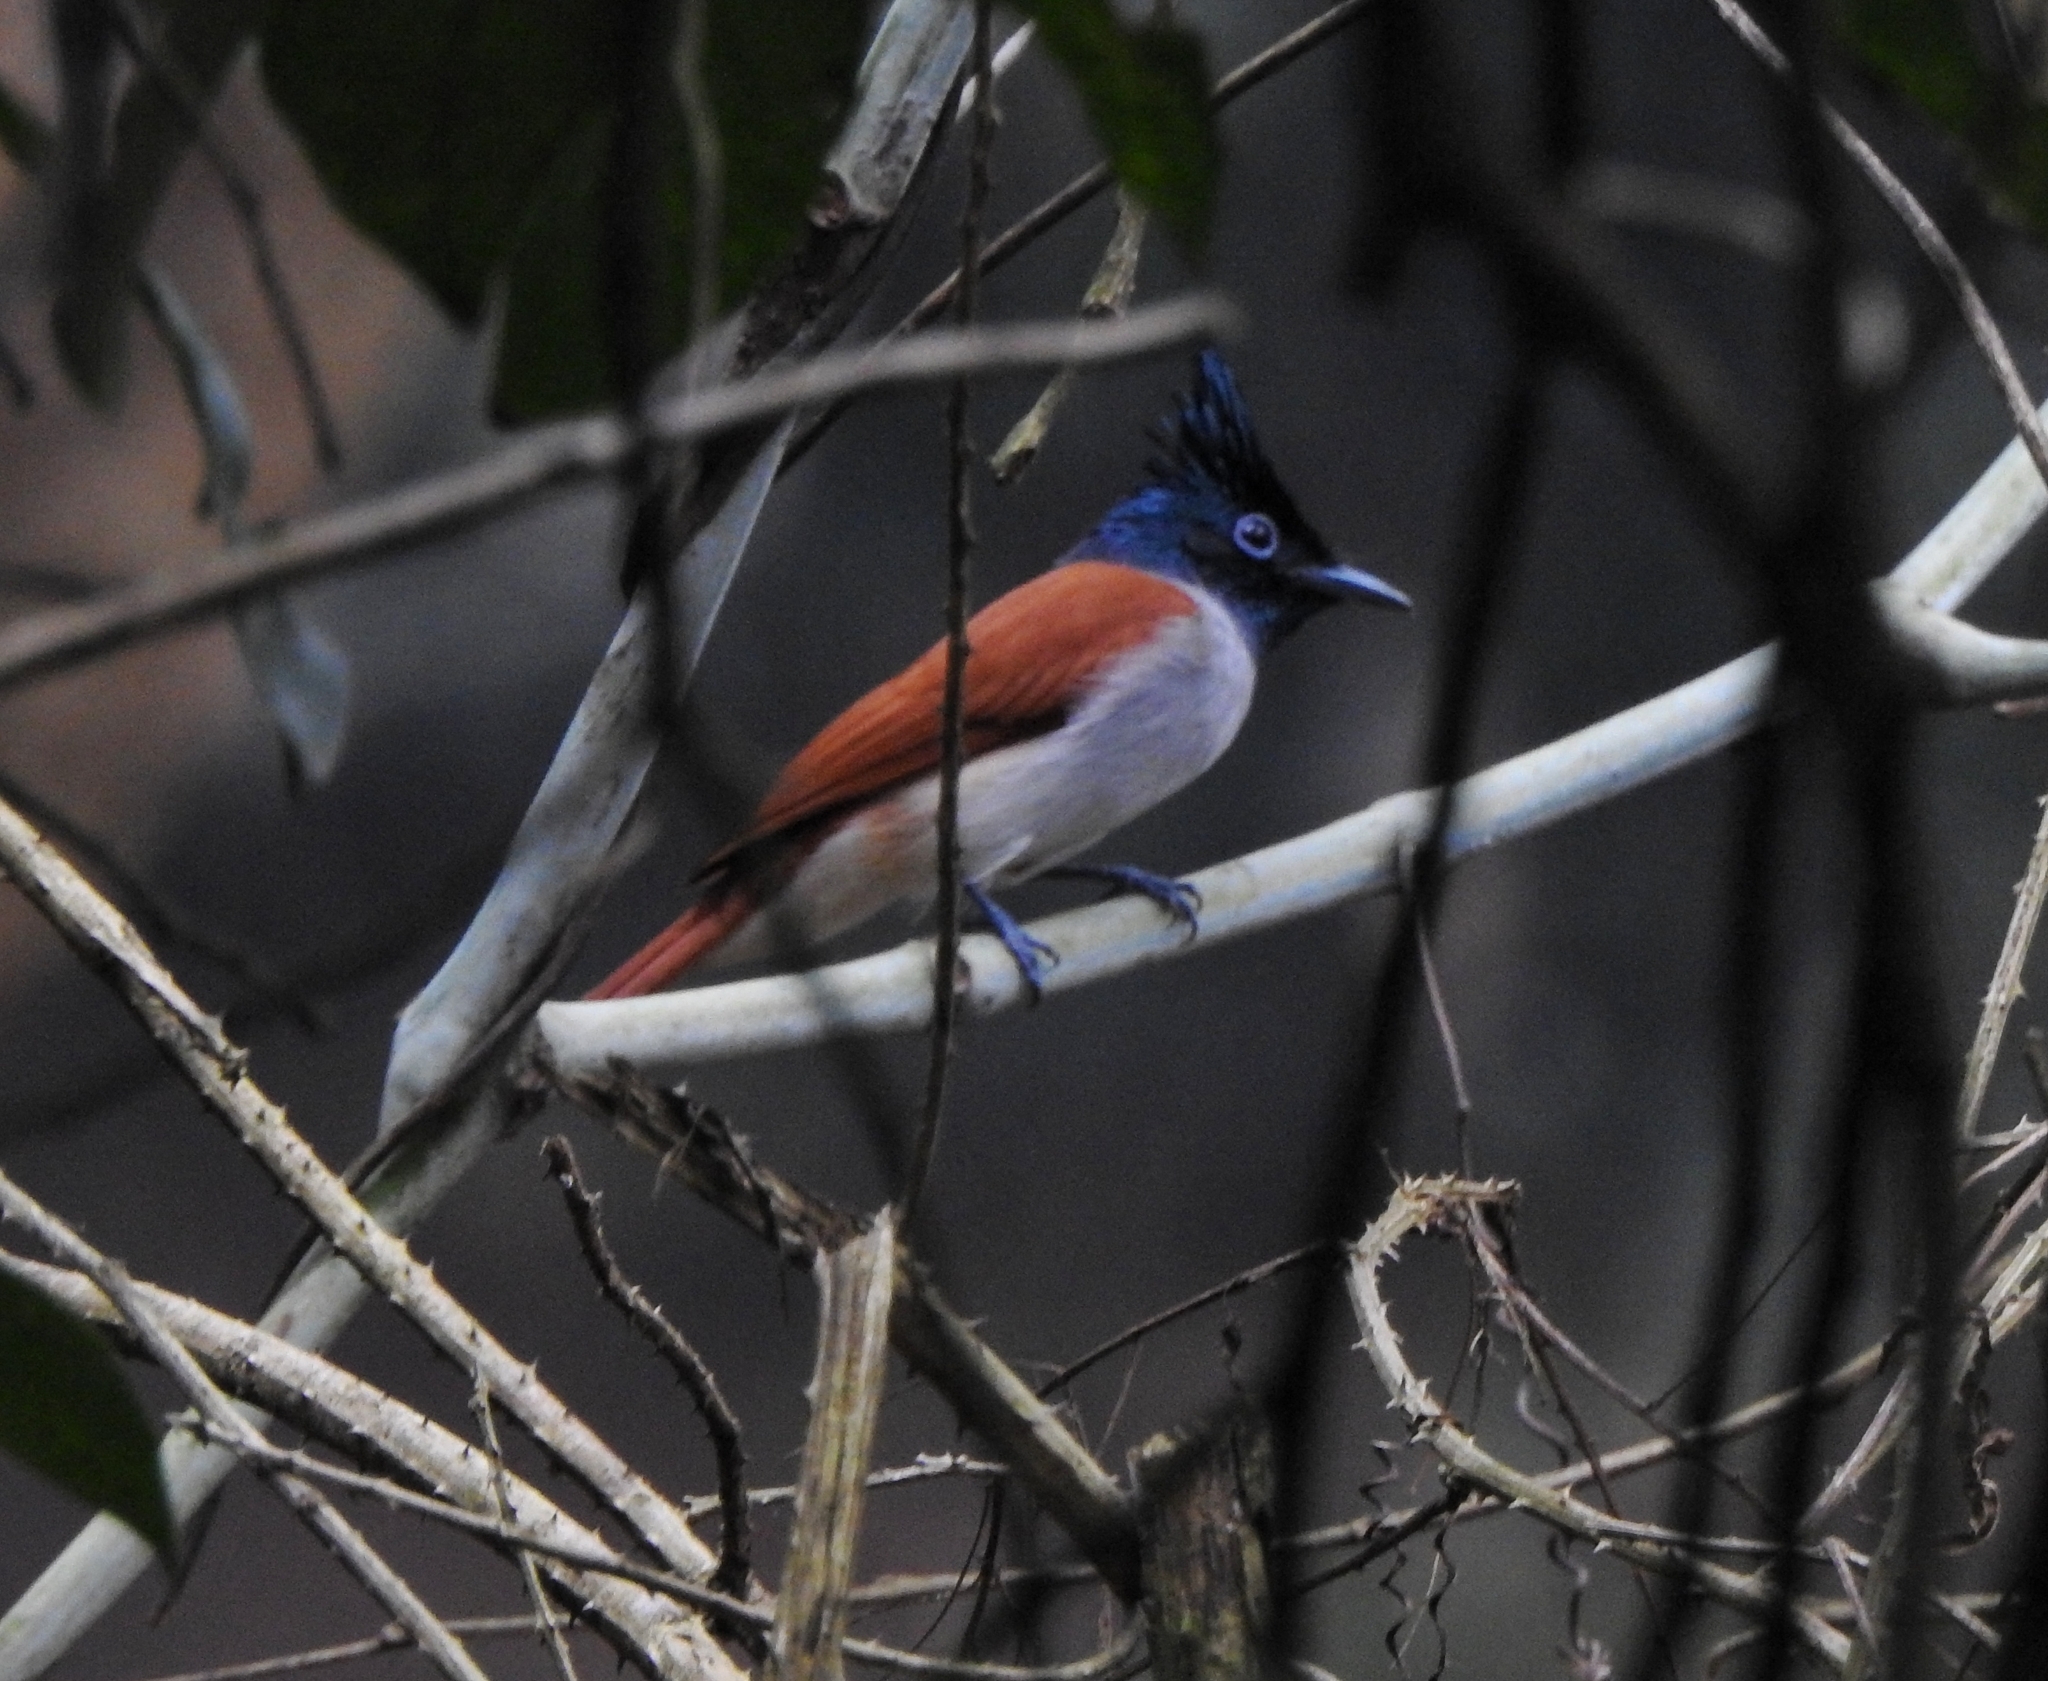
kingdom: Animalia
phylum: Chordata
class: Aves
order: Passeriformes
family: Monarchidae
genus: Terpsiphone
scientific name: Terpsiphone paradisi
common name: Indian paradise flycatcher
